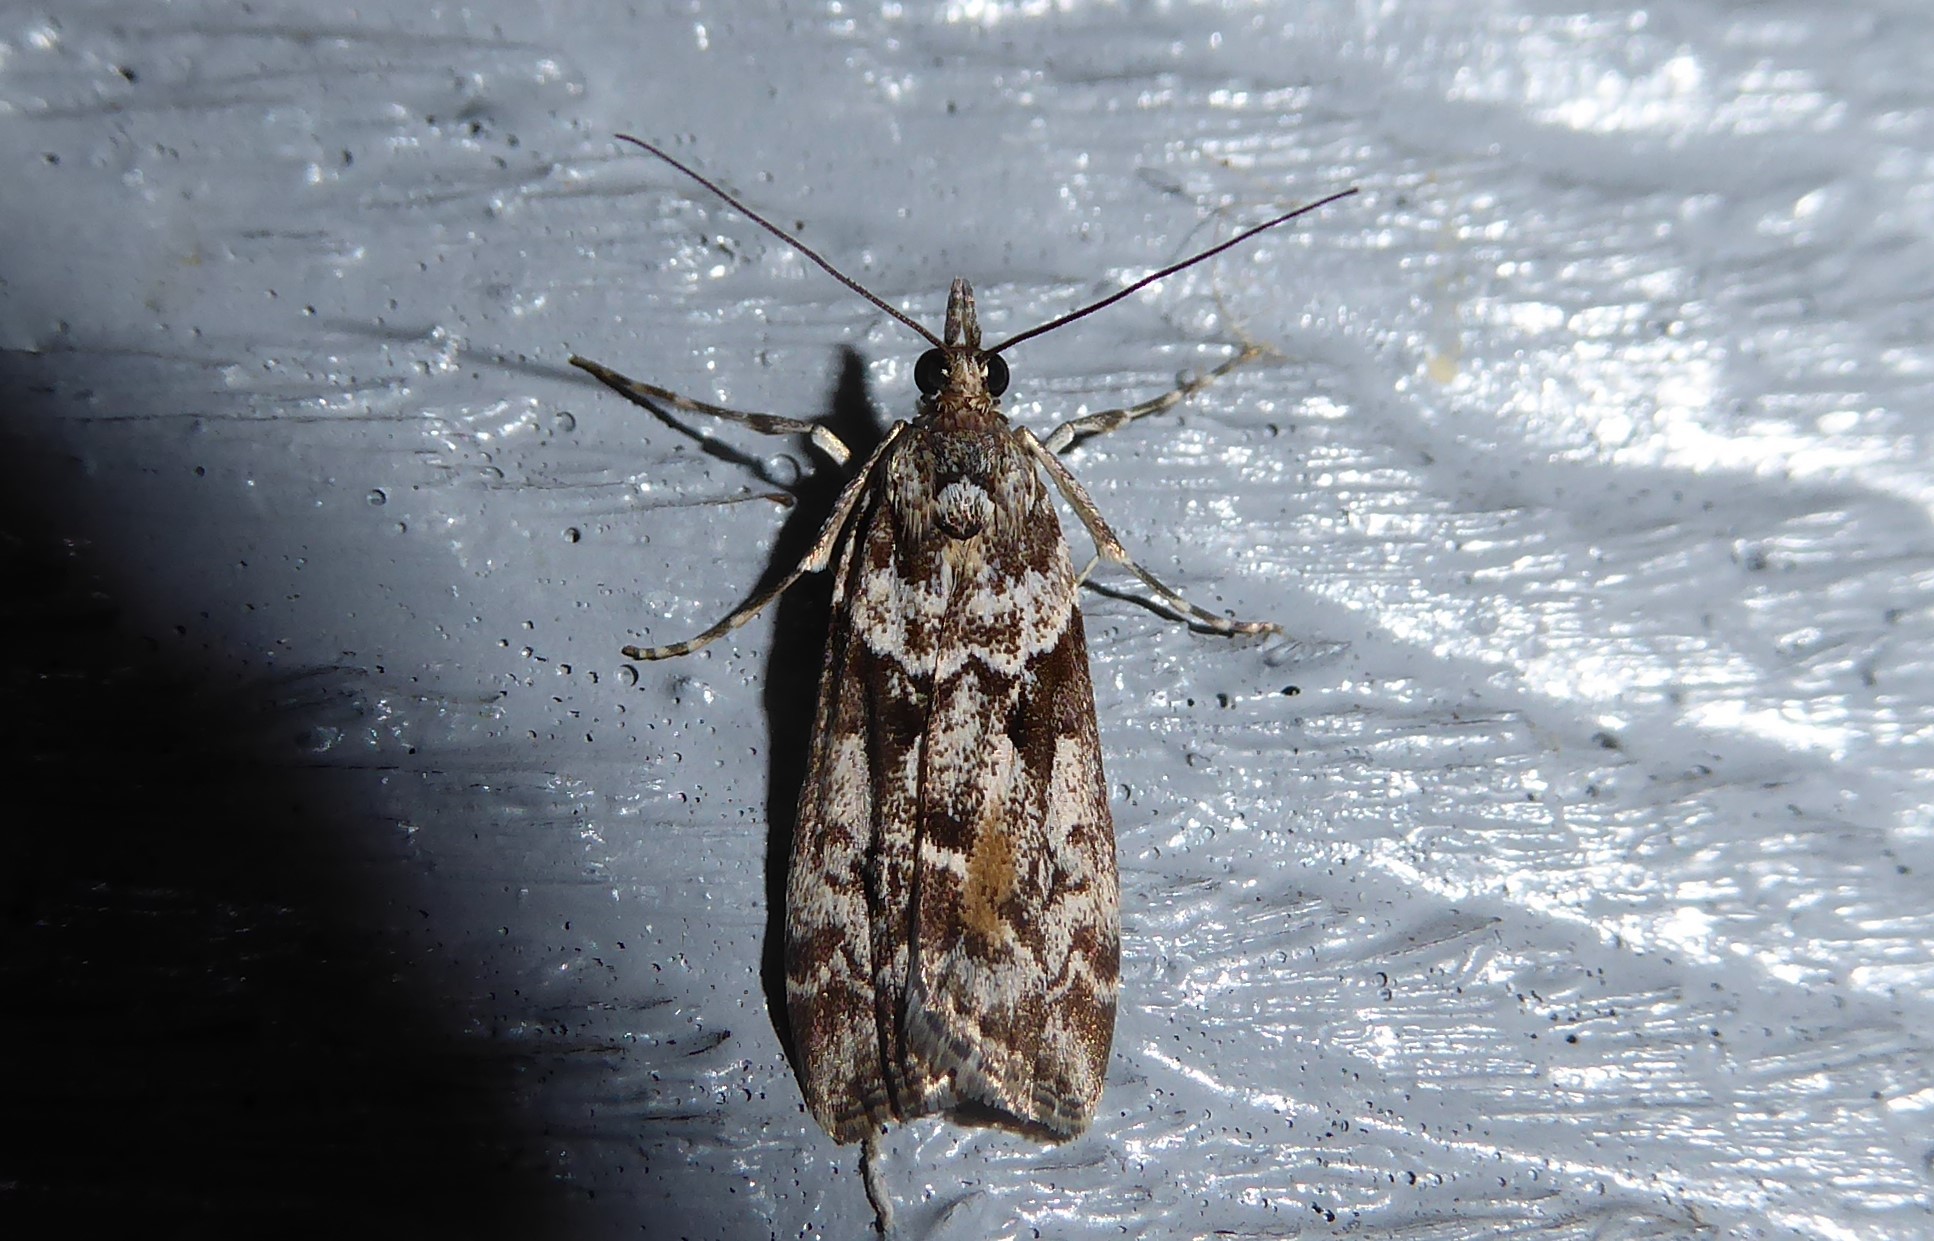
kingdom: Animalia
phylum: Arthropoda
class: Insecta
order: Lepidoptera
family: Crambidae
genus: Eudonia
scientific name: Eudonia submarginalis
